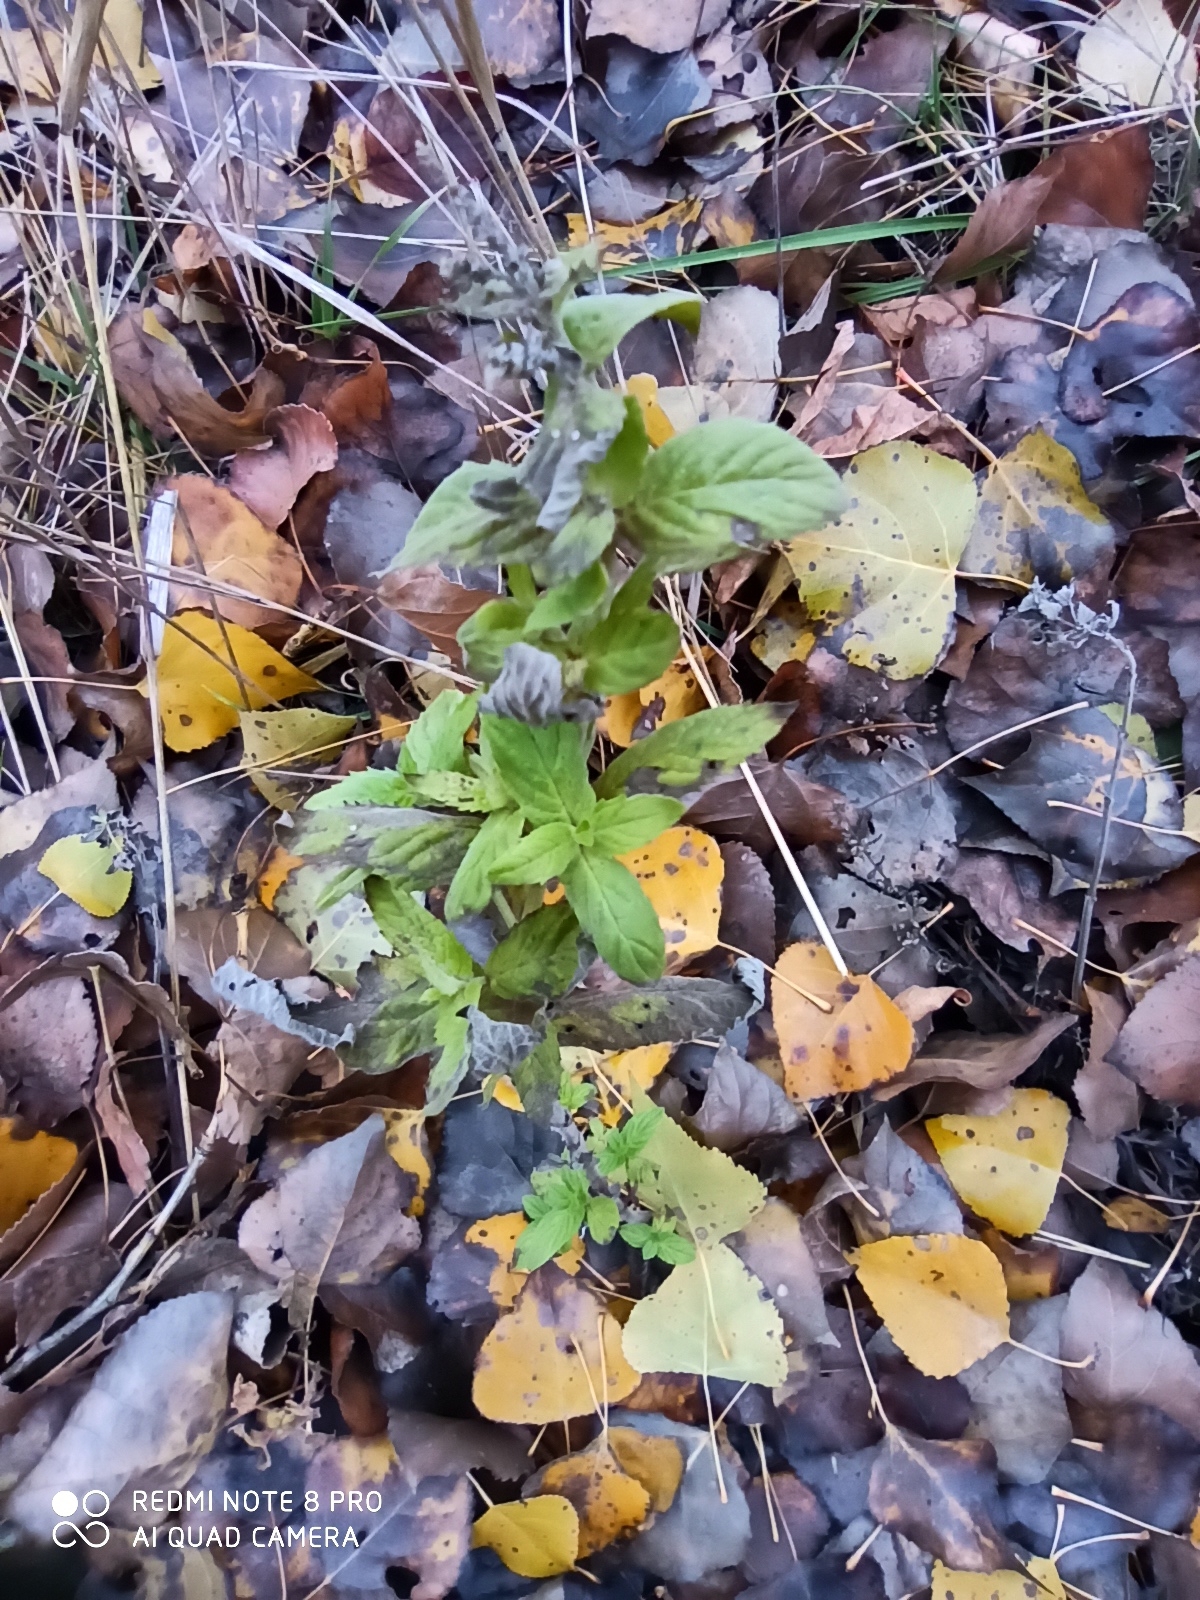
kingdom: Plantae
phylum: Tracheophyta
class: Magnoliopsida
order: Lamiales
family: Lamiaceae
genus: Nepeta
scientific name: Nepeta cataria
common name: Catnip
